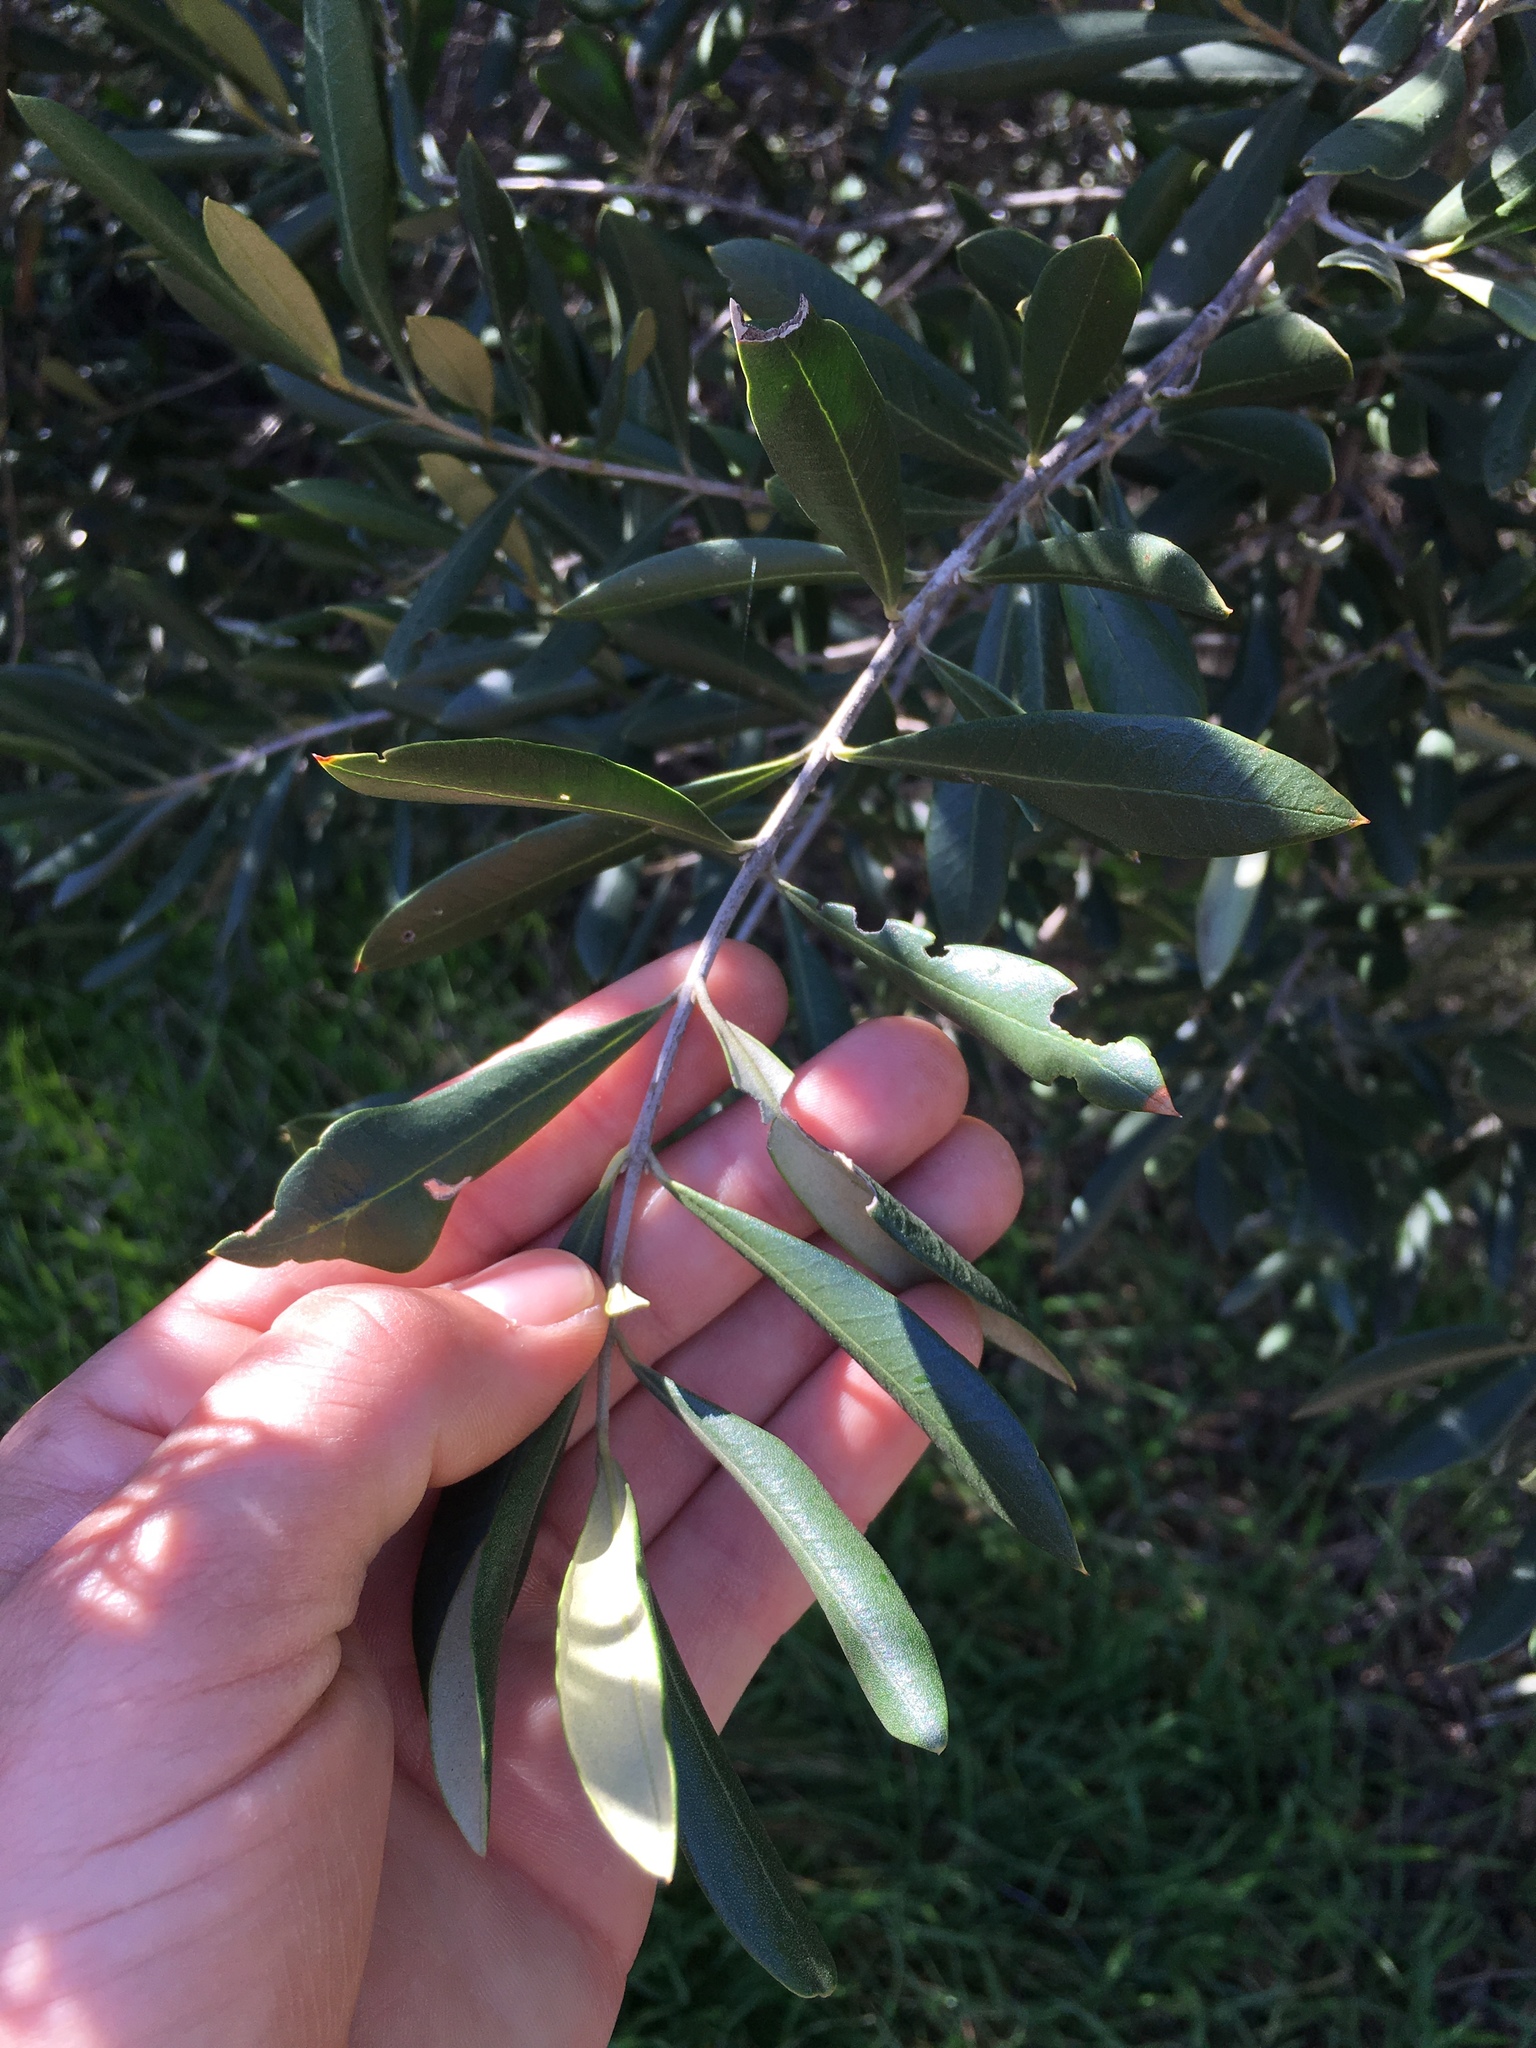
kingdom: Plantae
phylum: Tracheophyta
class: Magnoliopsida
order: Lamiales
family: Oleaceae
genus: Olea
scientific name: Olea europaea
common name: Olive
